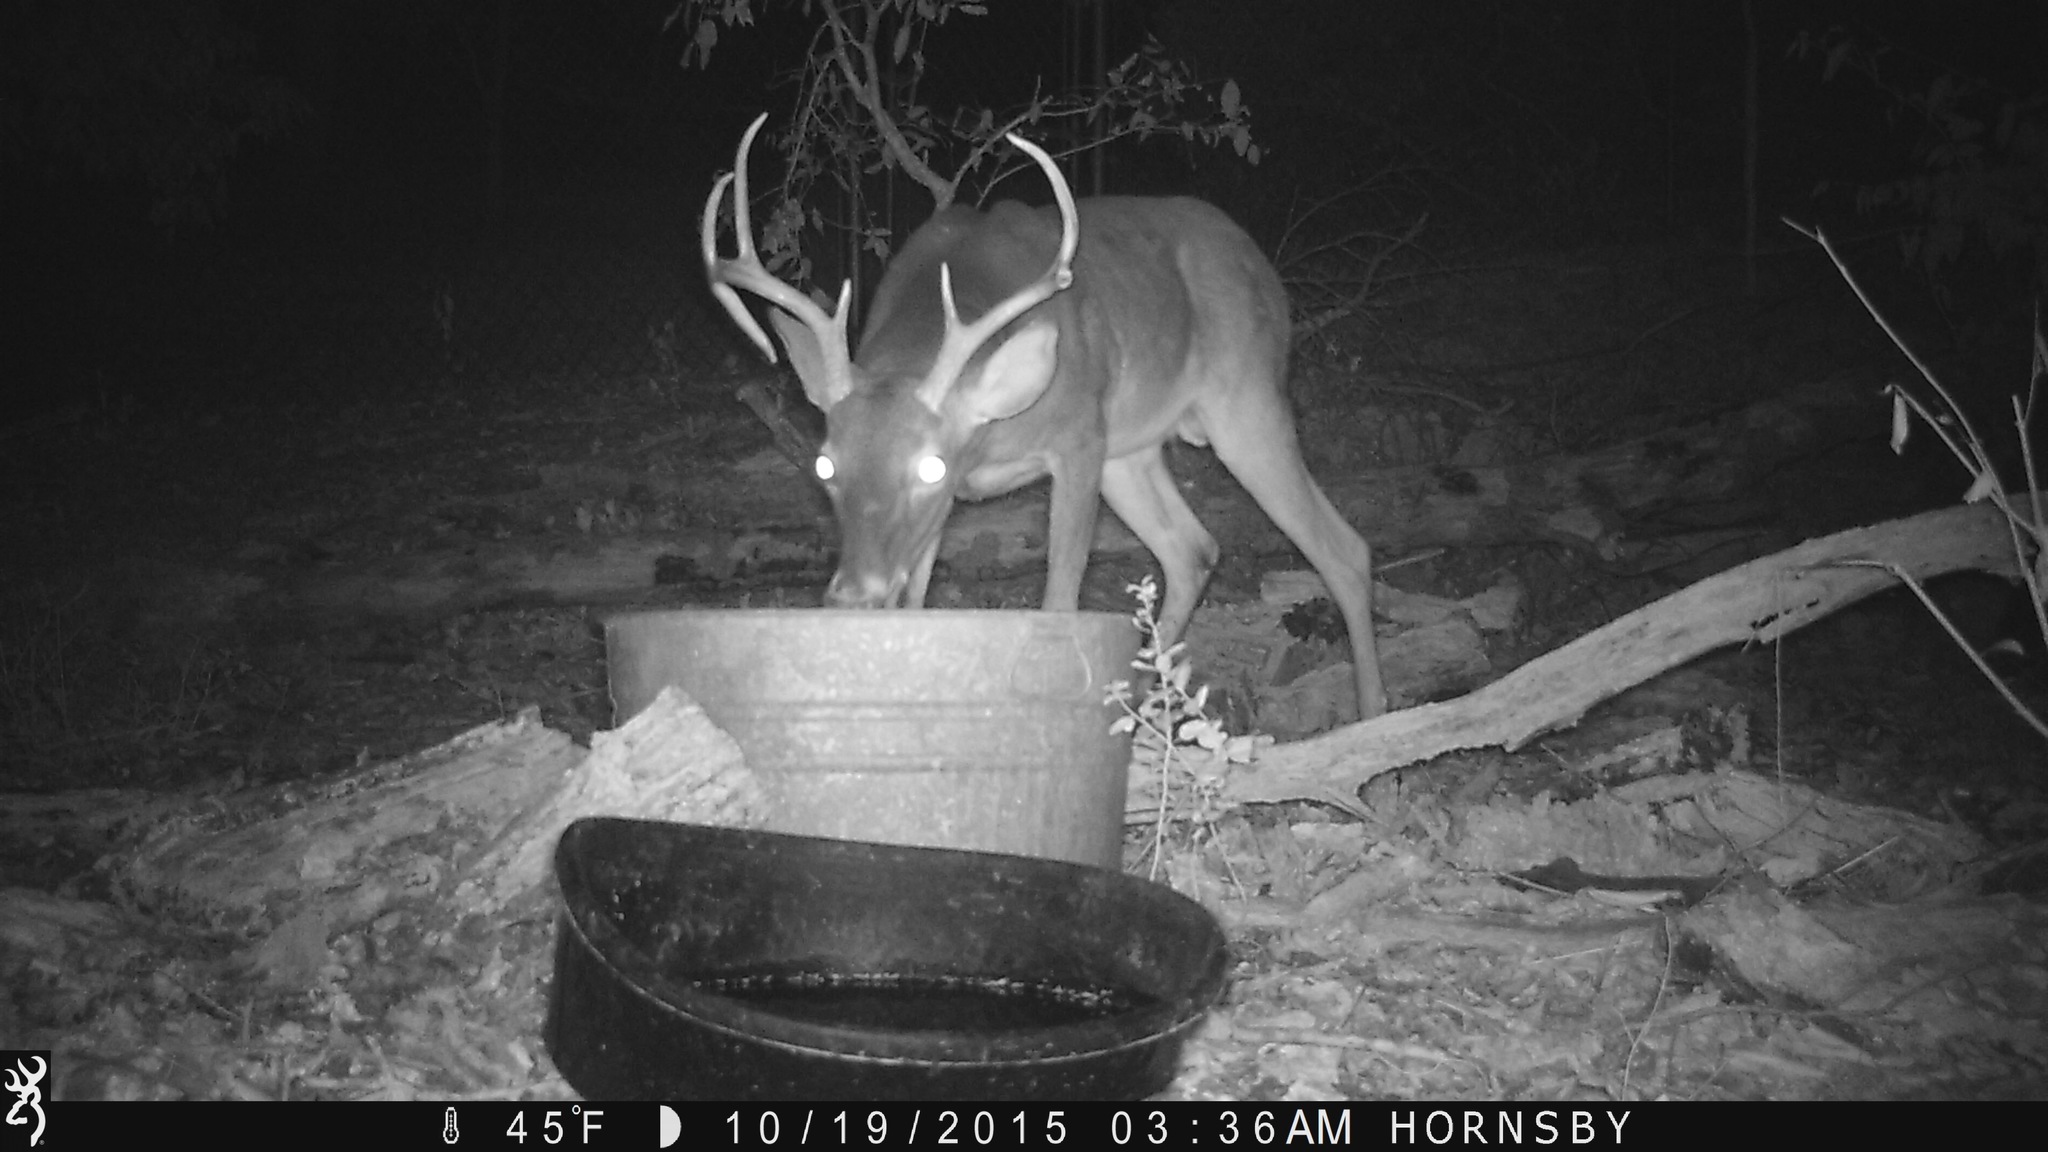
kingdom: Animalia
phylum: Chordata
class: Mammalia
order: Artiodactyla
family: Cervidae
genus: Odocoileus
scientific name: Odocoileus virginianus
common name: White-tailed deer
